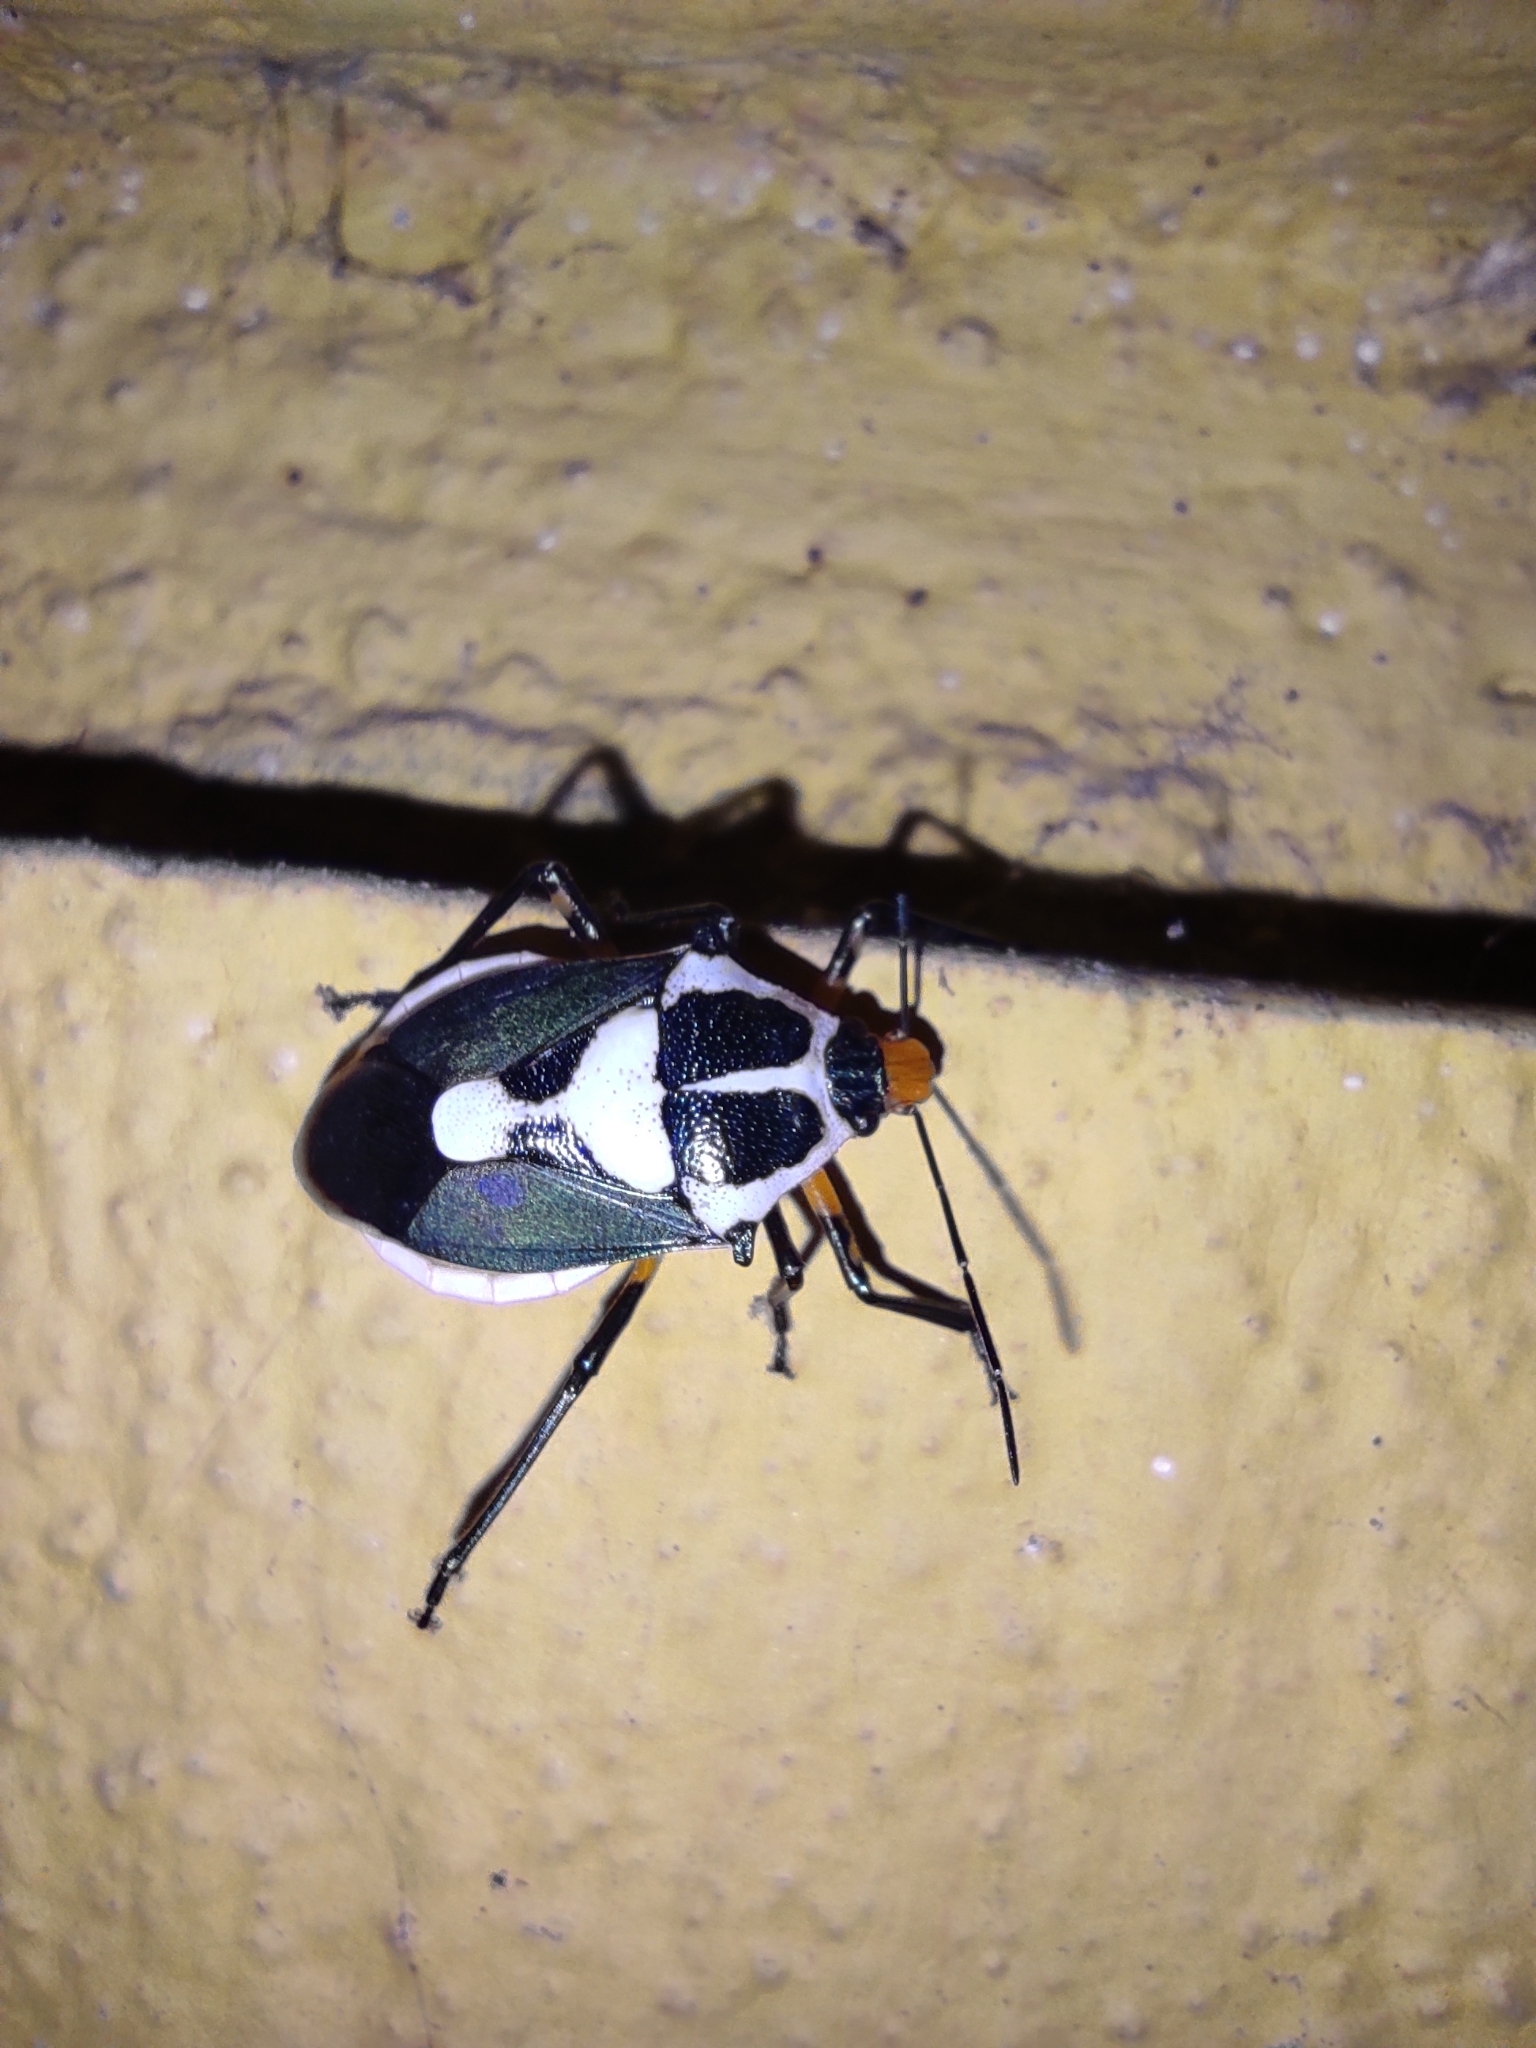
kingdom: Animalia
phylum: Arthropoda
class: Insecta
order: Hemiptera
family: Pentatomidae
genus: Euthyrhynchus
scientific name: Euthyrhynchus floridanus
